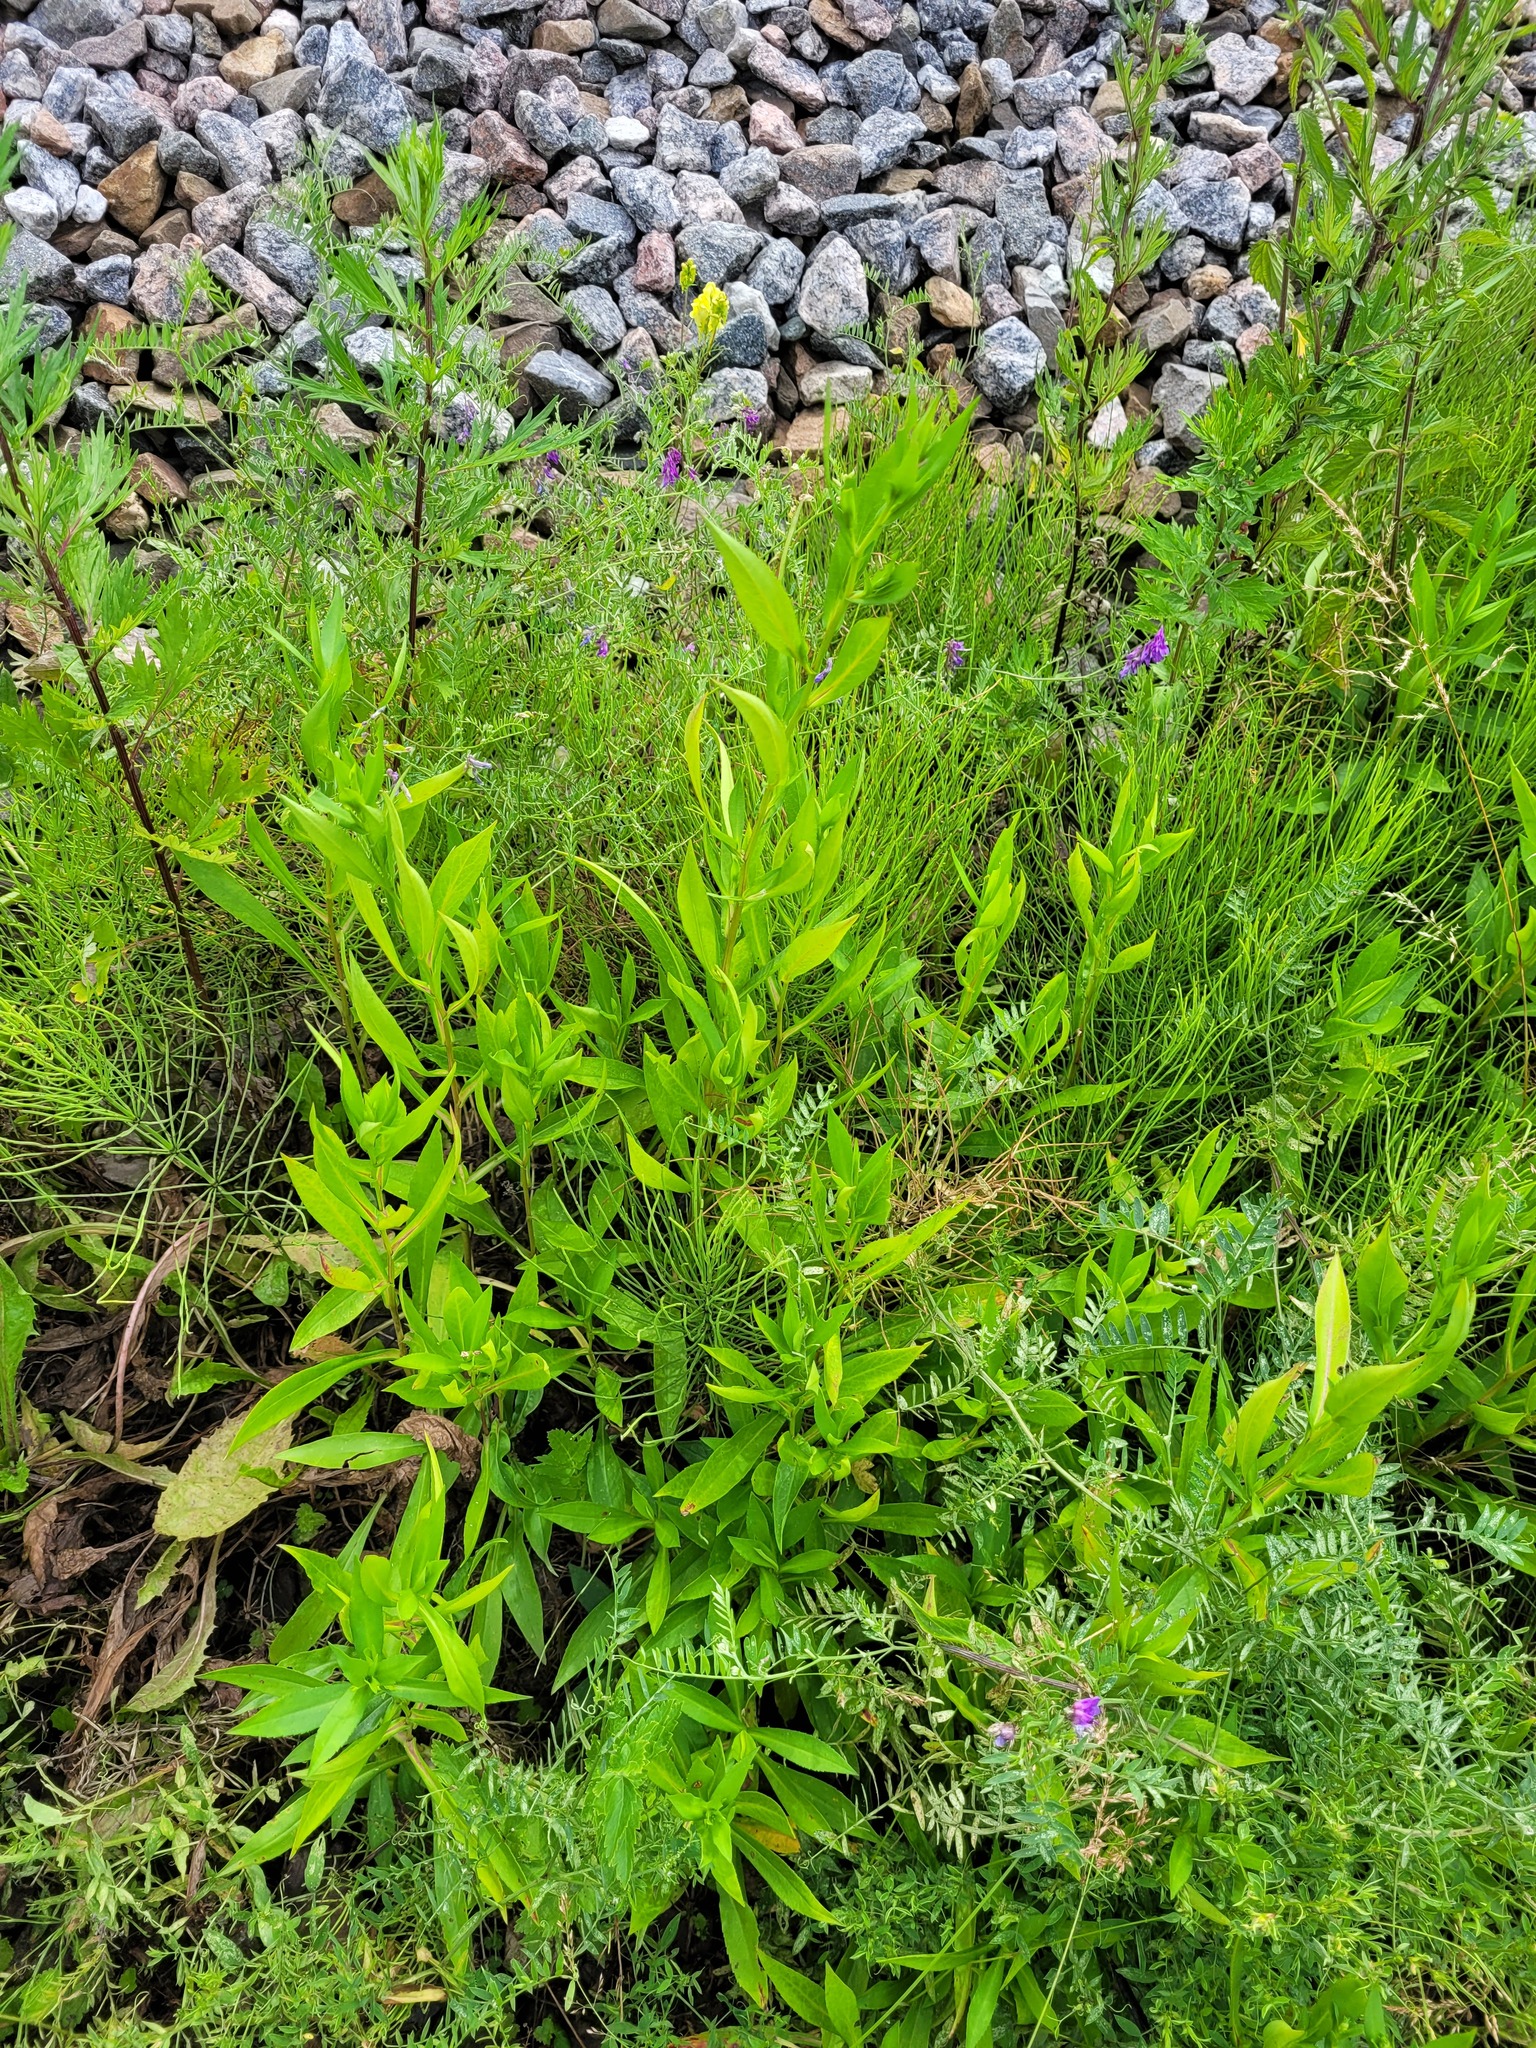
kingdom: Plantae
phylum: Tracheophyta
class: Magnoliopsida
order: Asterales
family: Asteraceae
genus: Symphyotrichum
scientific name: Symphyotrichum novi-belgii
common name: Michaelmas daisy
